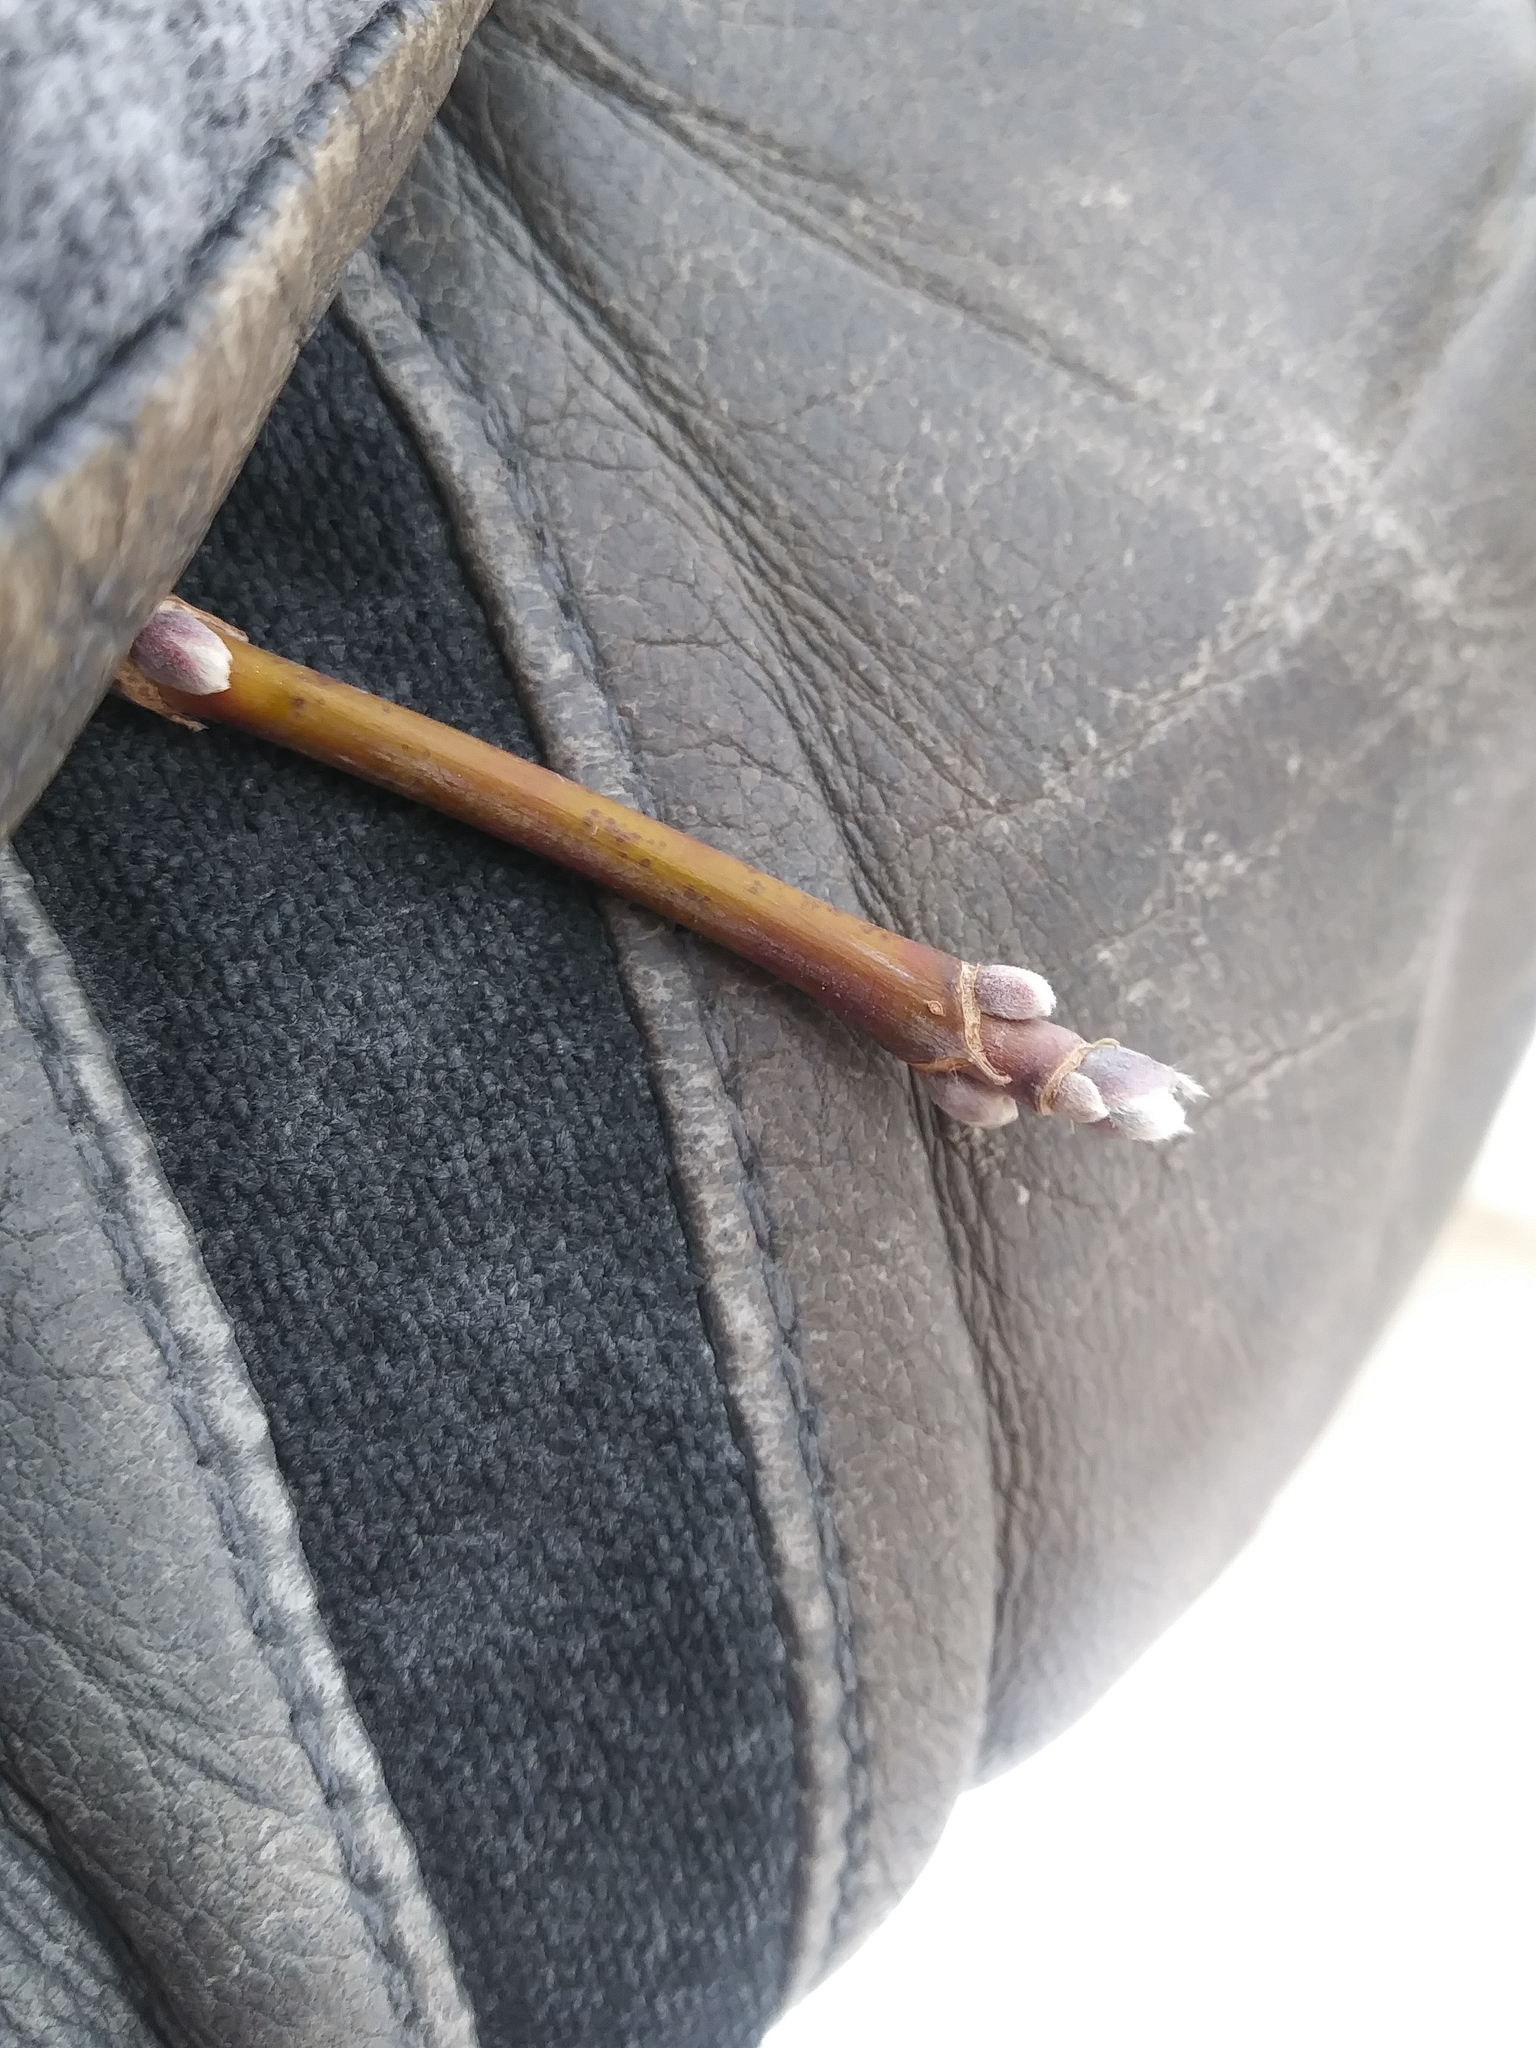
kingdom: Plantae
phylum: Tracheophyta
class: Magnoliopsida
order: Sapindales
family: Sapindaceae
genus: Acer
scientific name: Acer negundo
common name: Ashleaf maple
